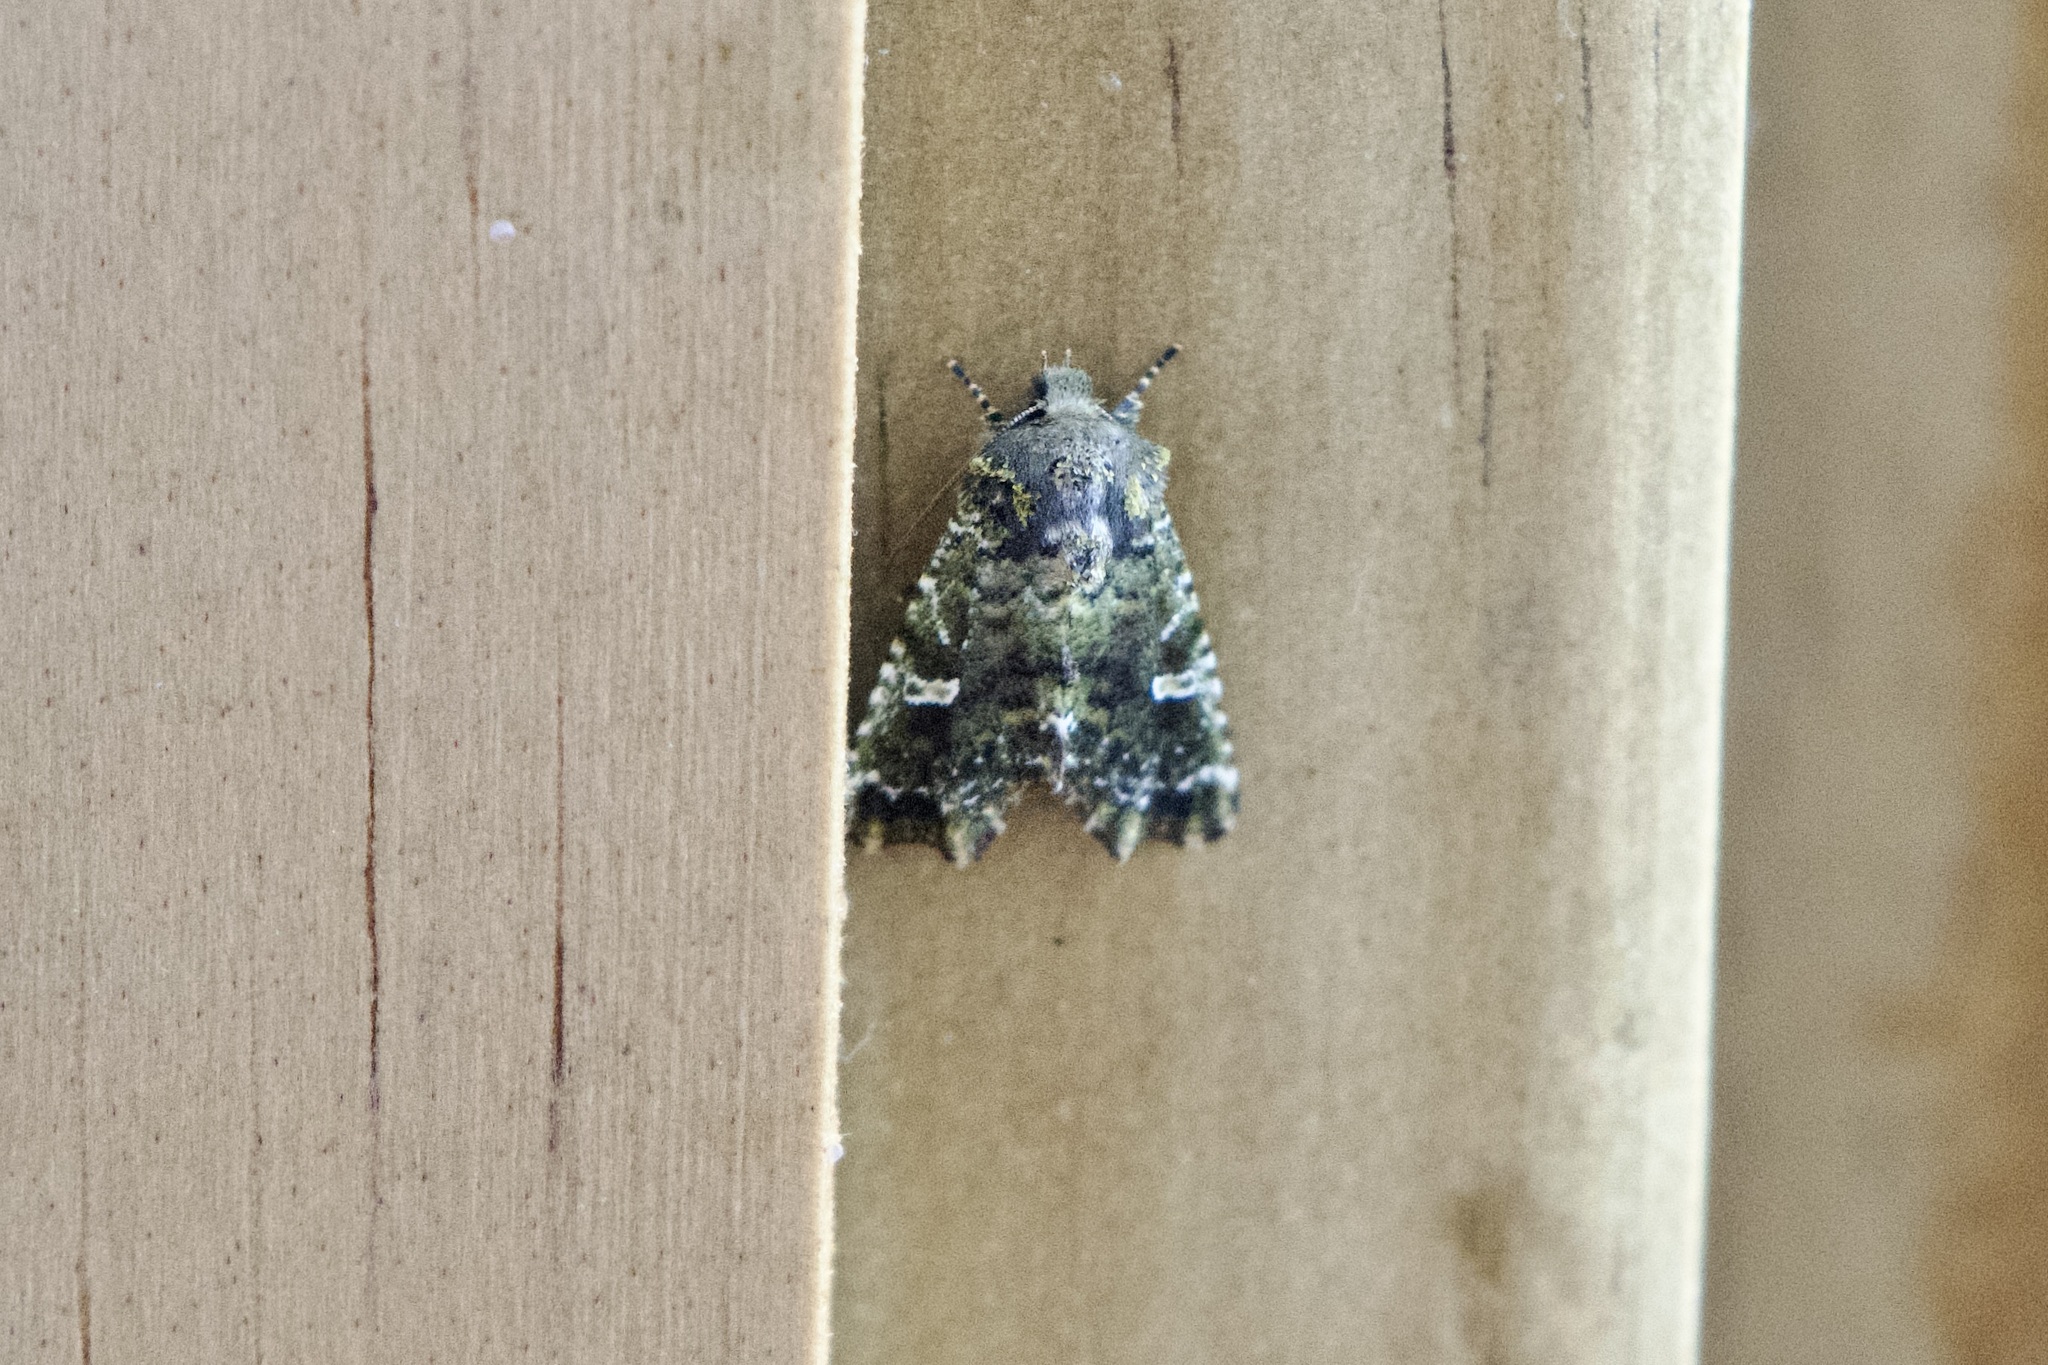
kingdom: Animalia
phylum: Arthropoda
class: Insecta
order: Lepidoptera
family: Noctuidae
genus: Chabuata
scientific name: Chabuata
